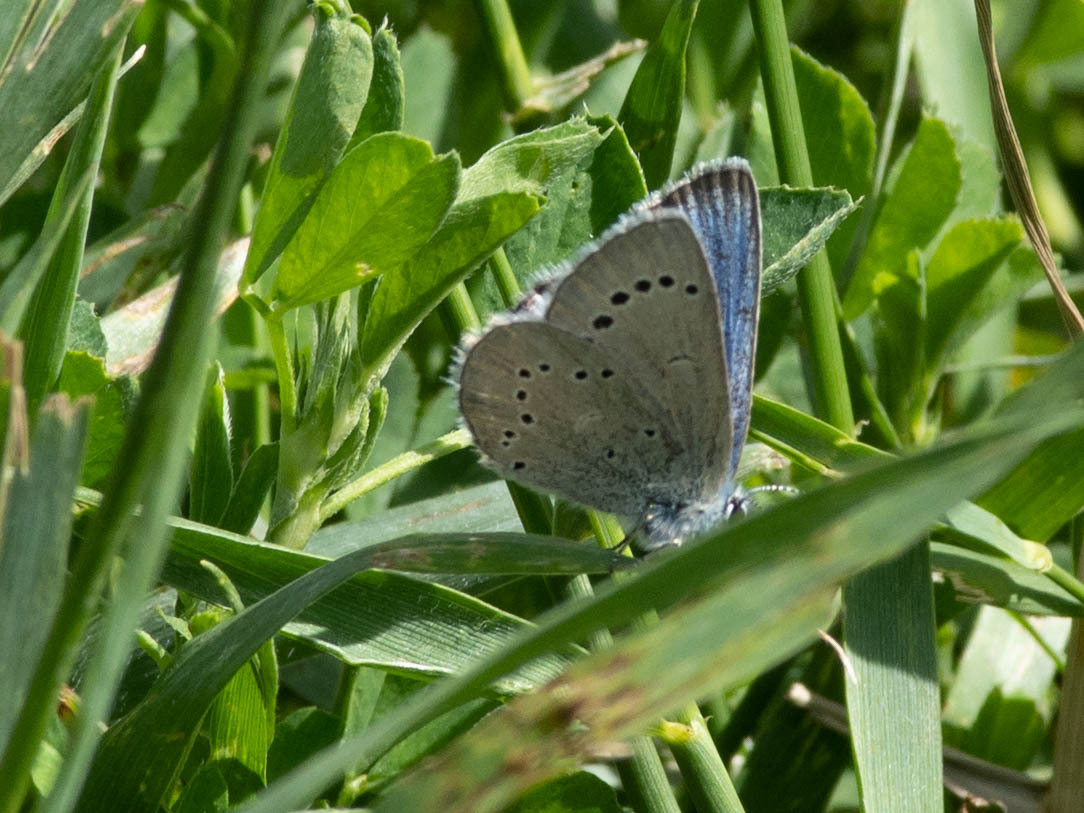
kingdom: Animalia
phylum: Arthropoda
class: Insecta
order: Lepidoptera
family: Lycaenidae
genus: Glaucopsyche
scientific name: Glaucopsyche lygdamus
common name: Silvery blue
